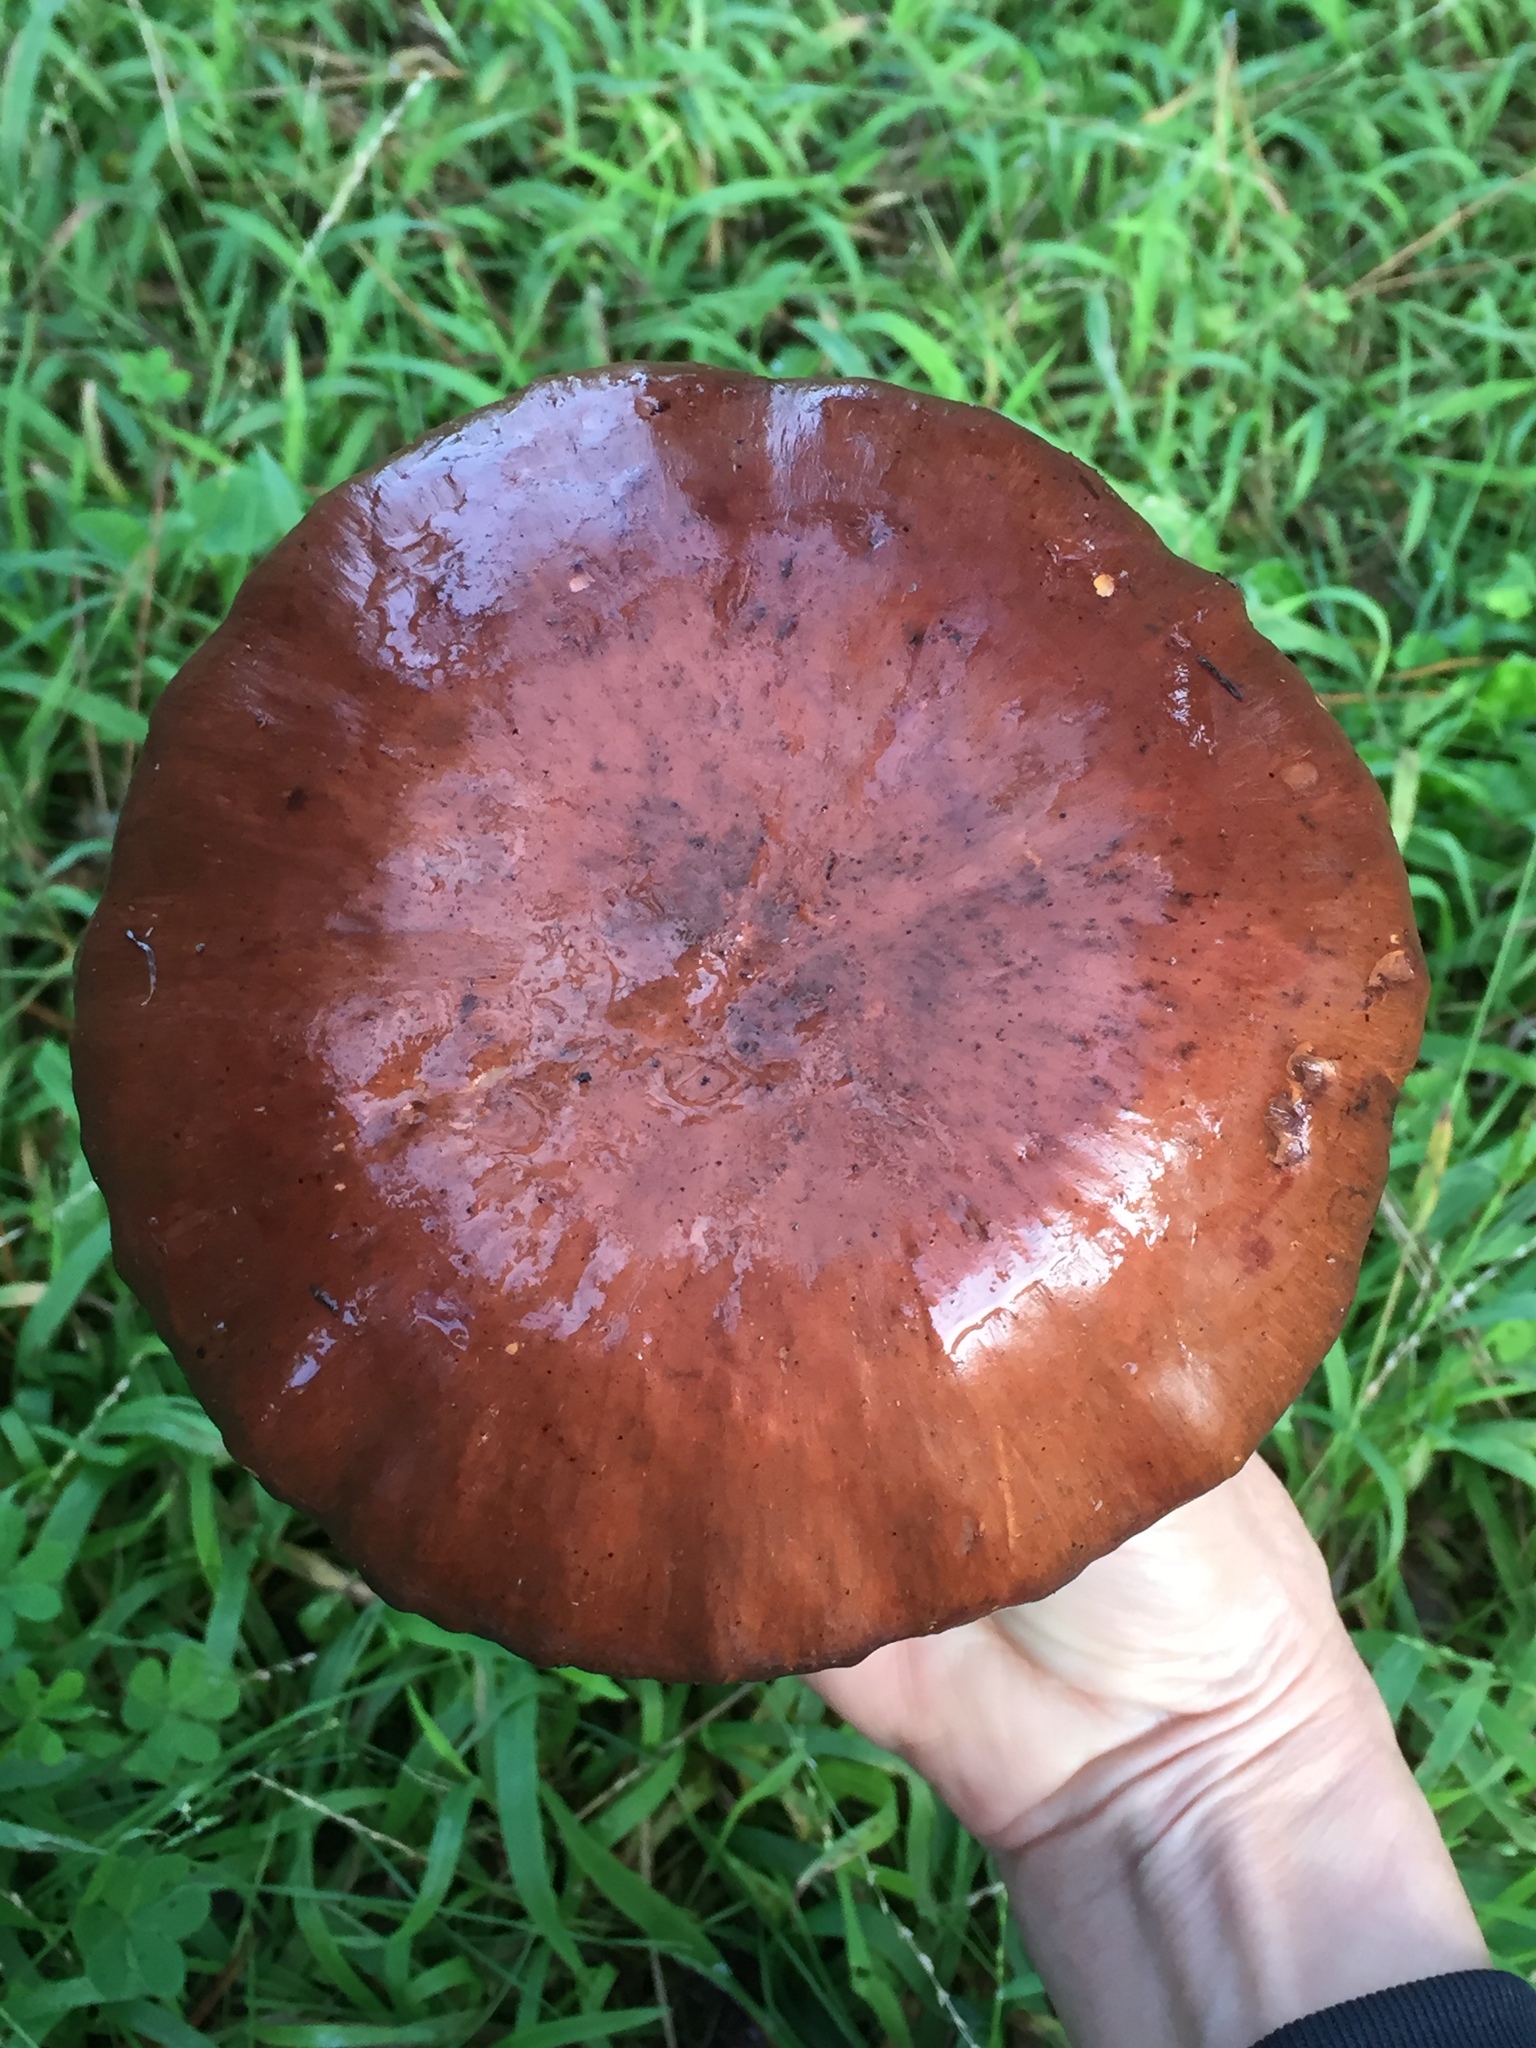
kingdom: Fungi
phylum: Basidiomycota
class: Agaricomycetes
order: Boletales
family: Gomphidiaceae
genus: Chroogomphus
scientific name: Chroogomphus vinicolor
